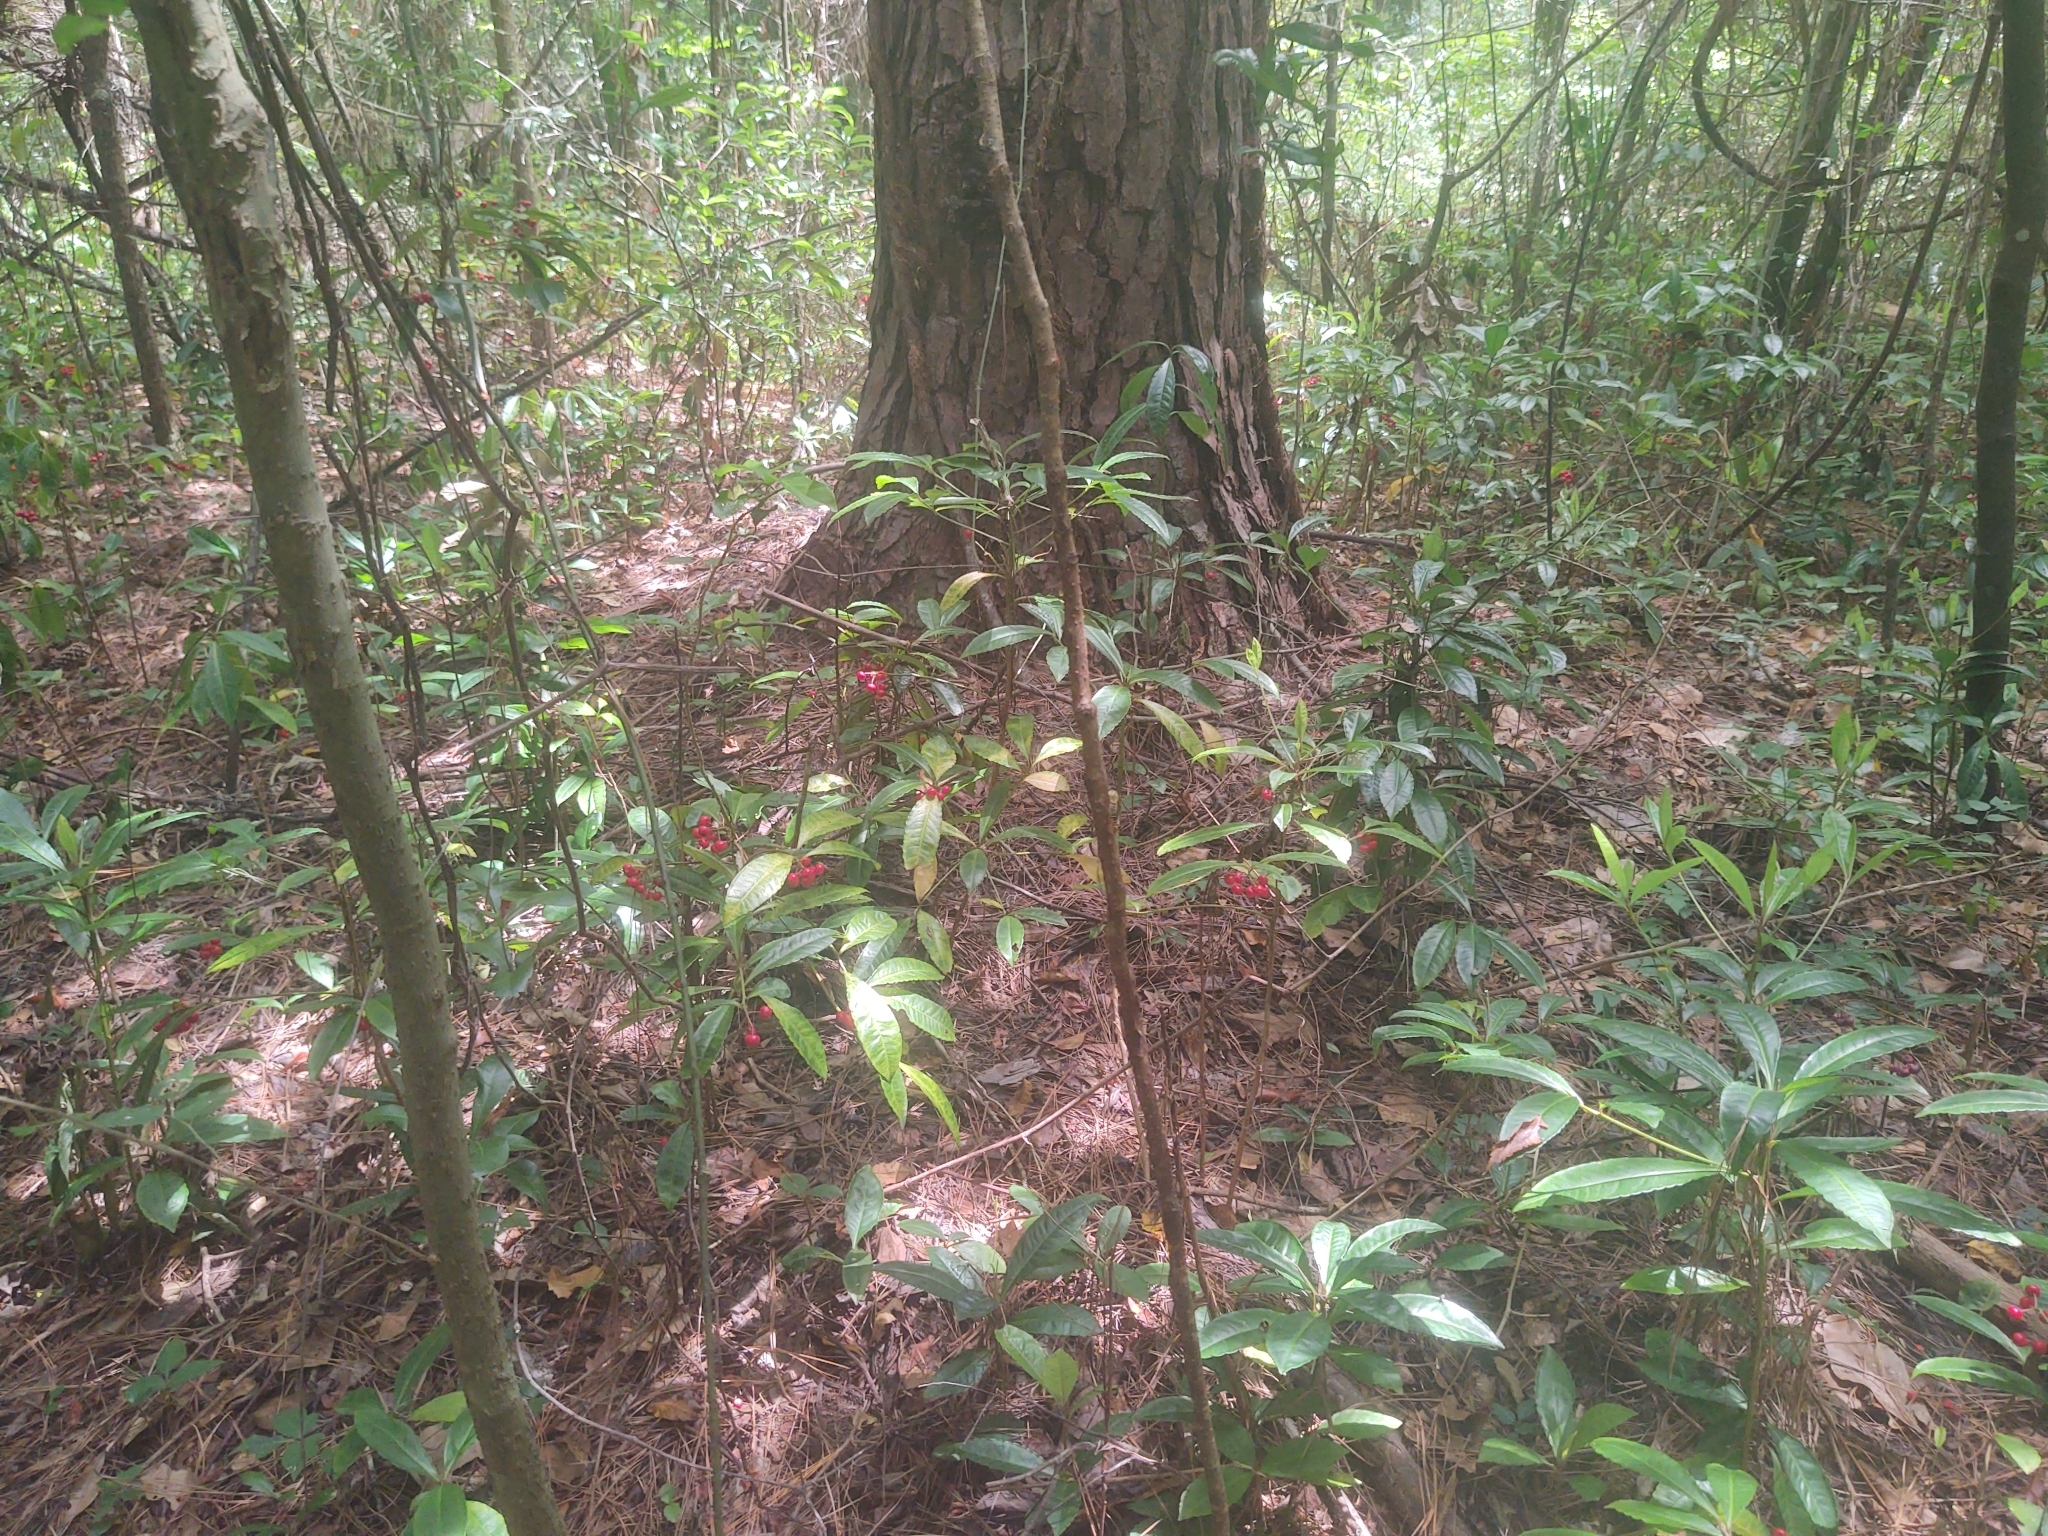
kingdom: Plantae
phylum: Tracheophyta
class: Magnoliopsida
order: Ericales
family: Primulaceae
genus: Ardisia
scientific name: Ardisia crenata
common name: Hen's eyes
